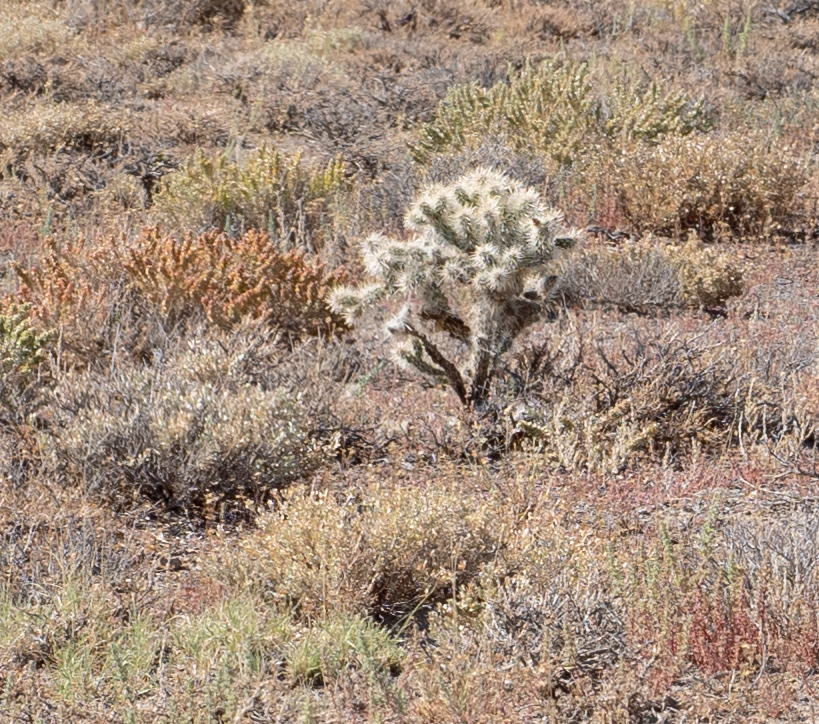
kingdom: Plantae
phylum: Tracheophyta
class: Magnoliopsida
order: Caryophyllales
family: Cactaceae
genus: Cylindropuntia
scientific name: Cylindropuntia echinocarpa
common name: Ground cholla
